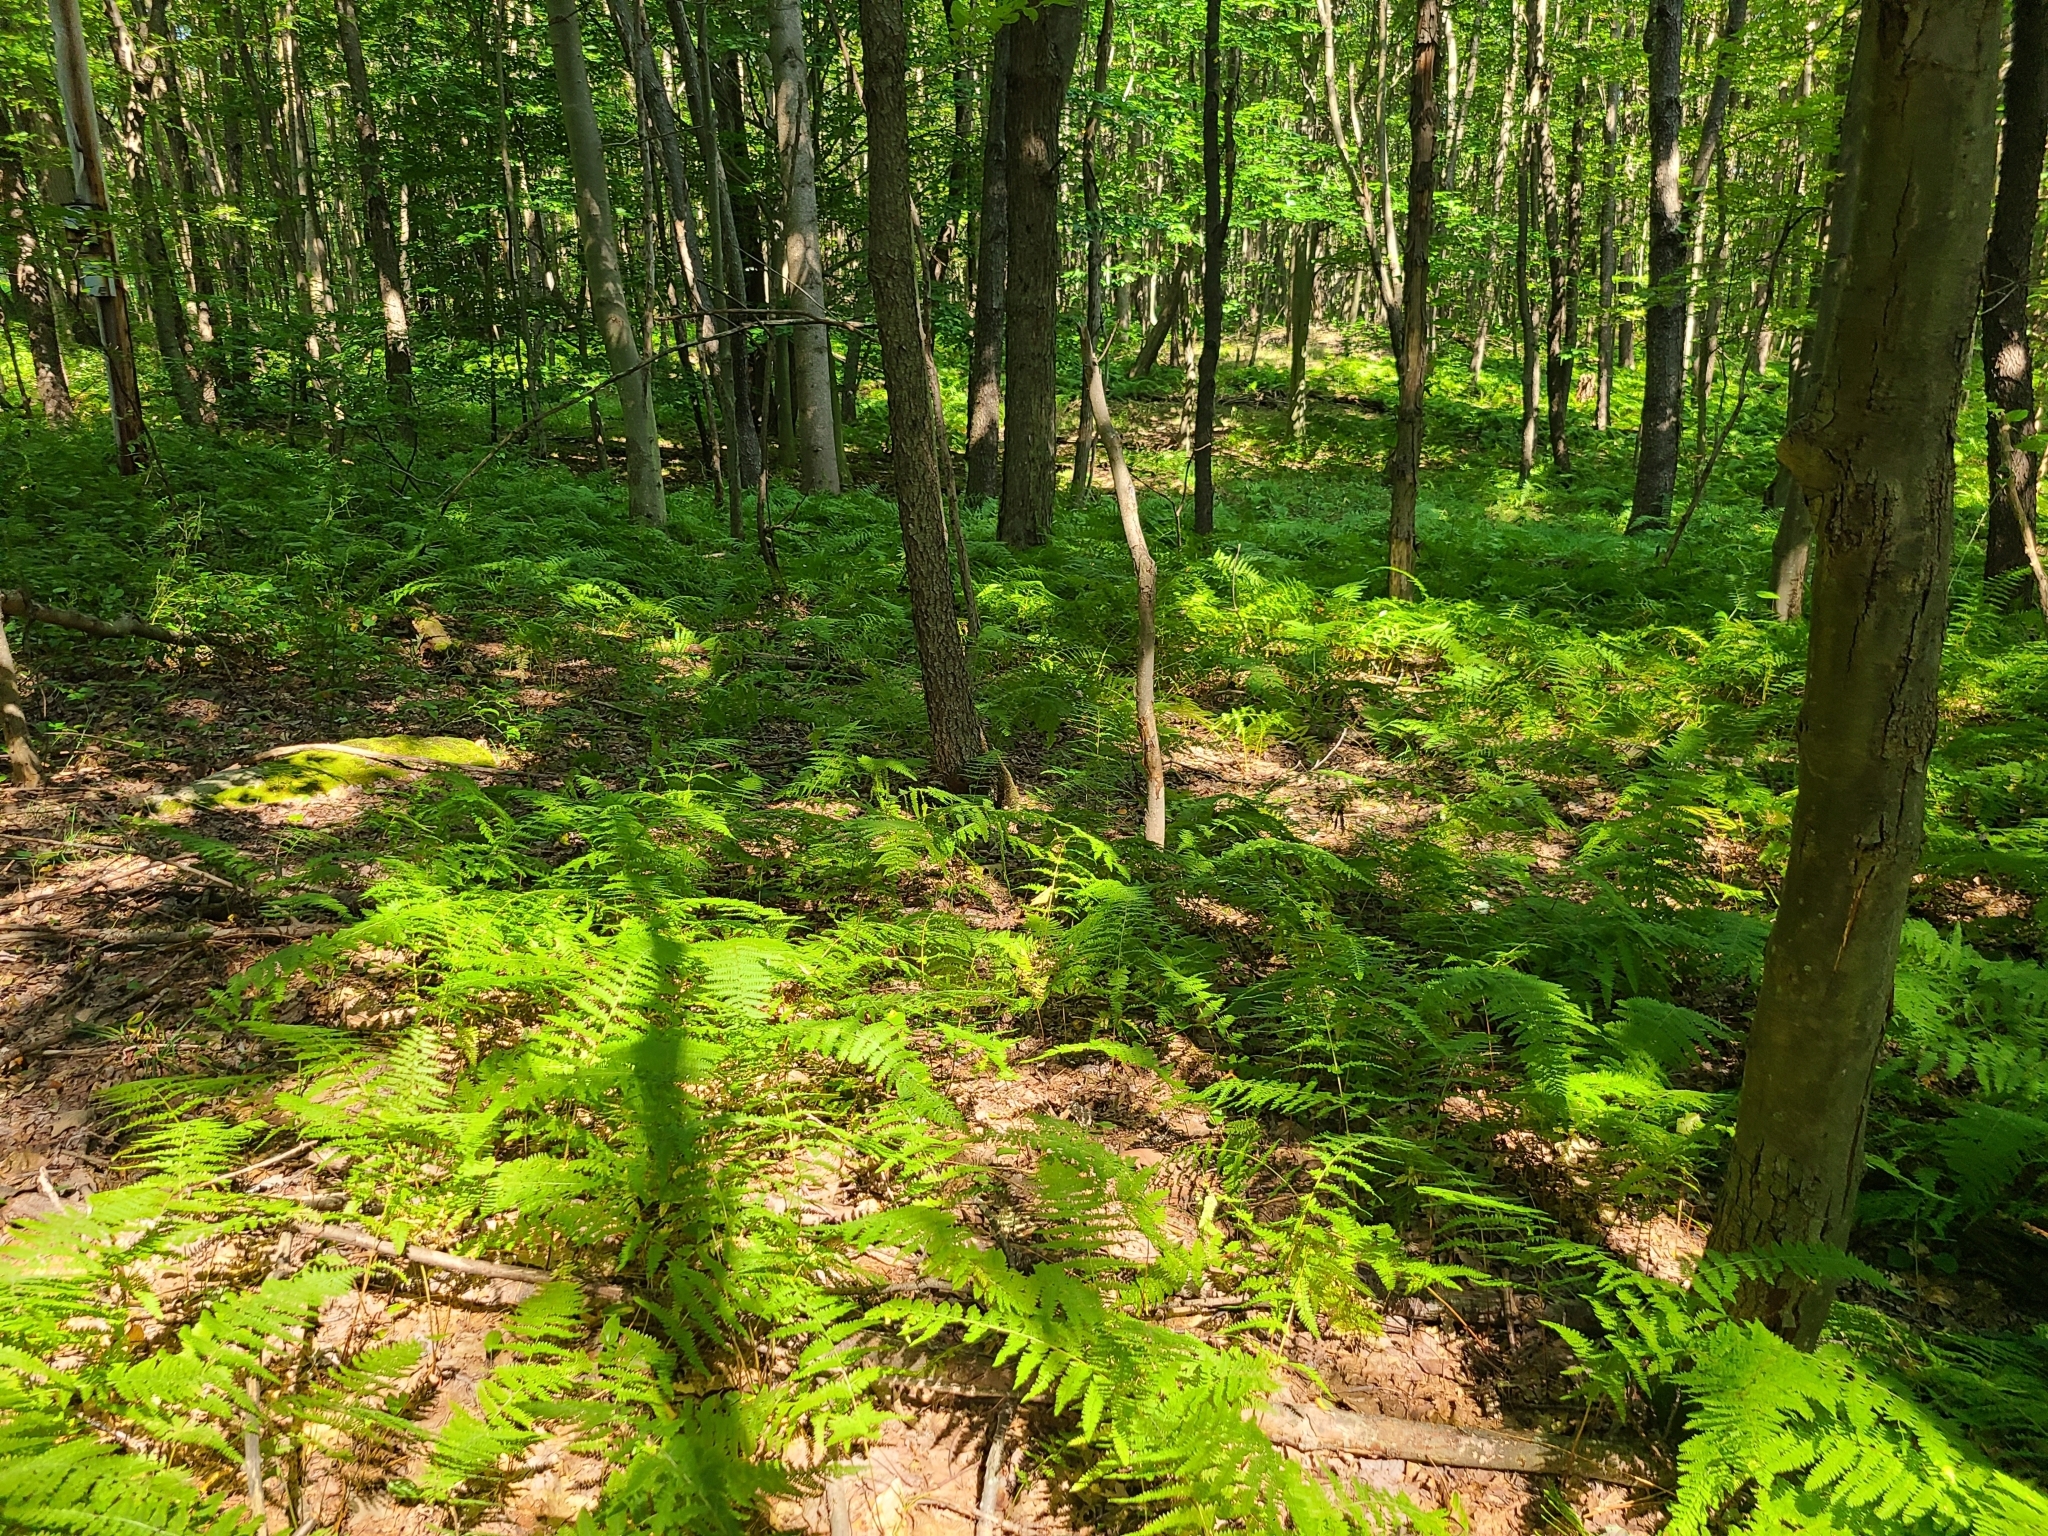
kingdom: Plantae
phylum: Tracheophyta
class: Polypodiopsida
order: Polypodiales
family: Dennstaedtiaceae
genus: Sitobolium
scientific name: Sitobolium punctilobum
